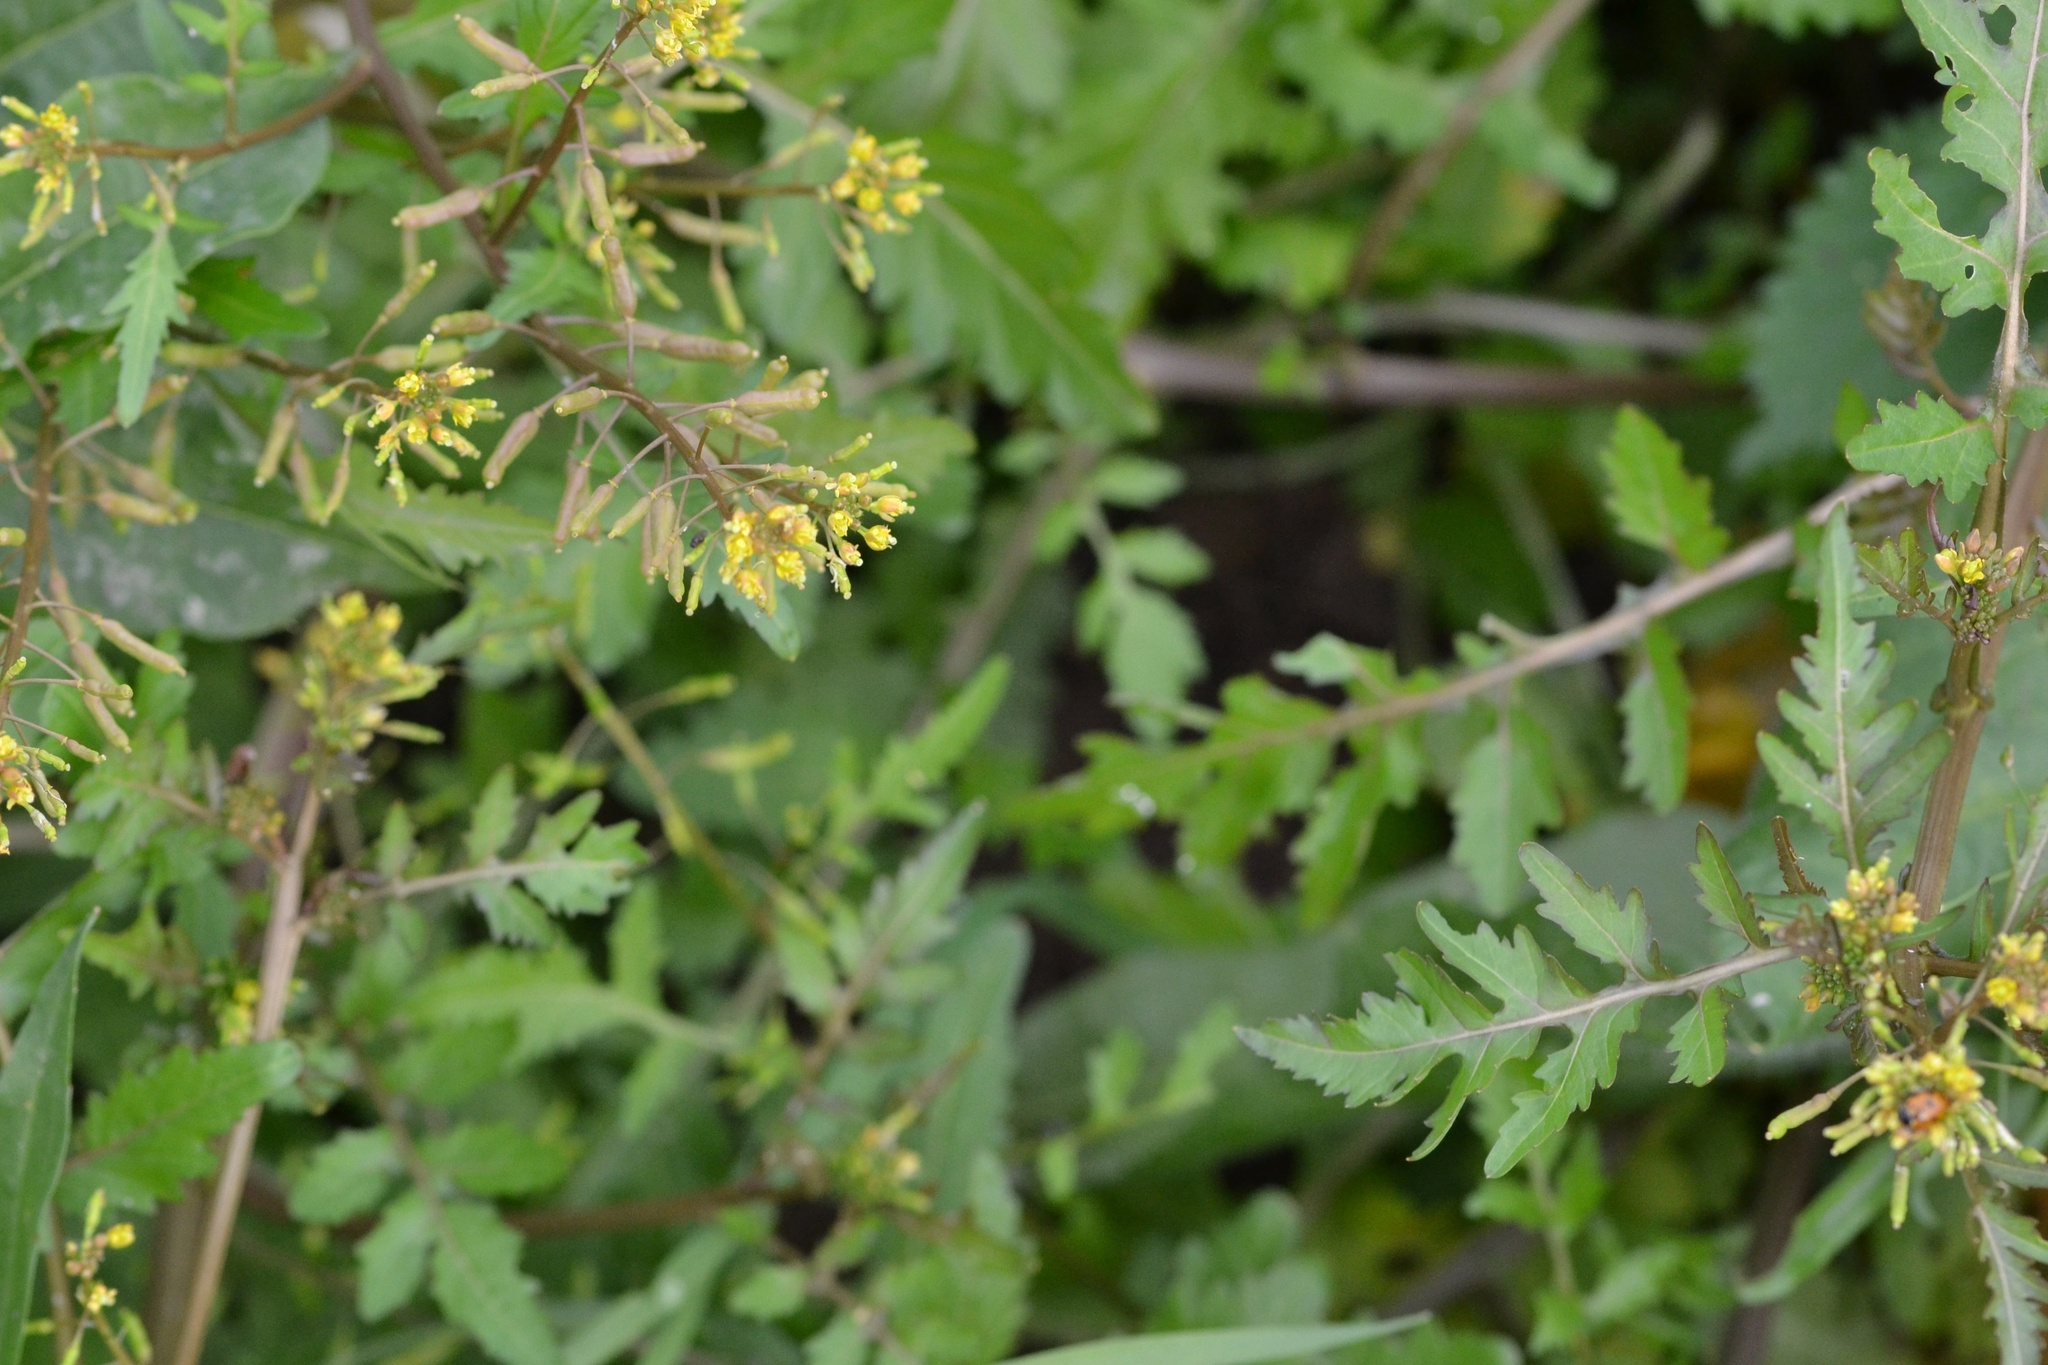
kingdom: Plantae
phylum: Tracheophyta
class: Magnoliopsida
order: Brassicales
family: Brassicaceae
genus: Rorippa
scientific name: Rorippa palustris
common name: Marsh yellow-cress
